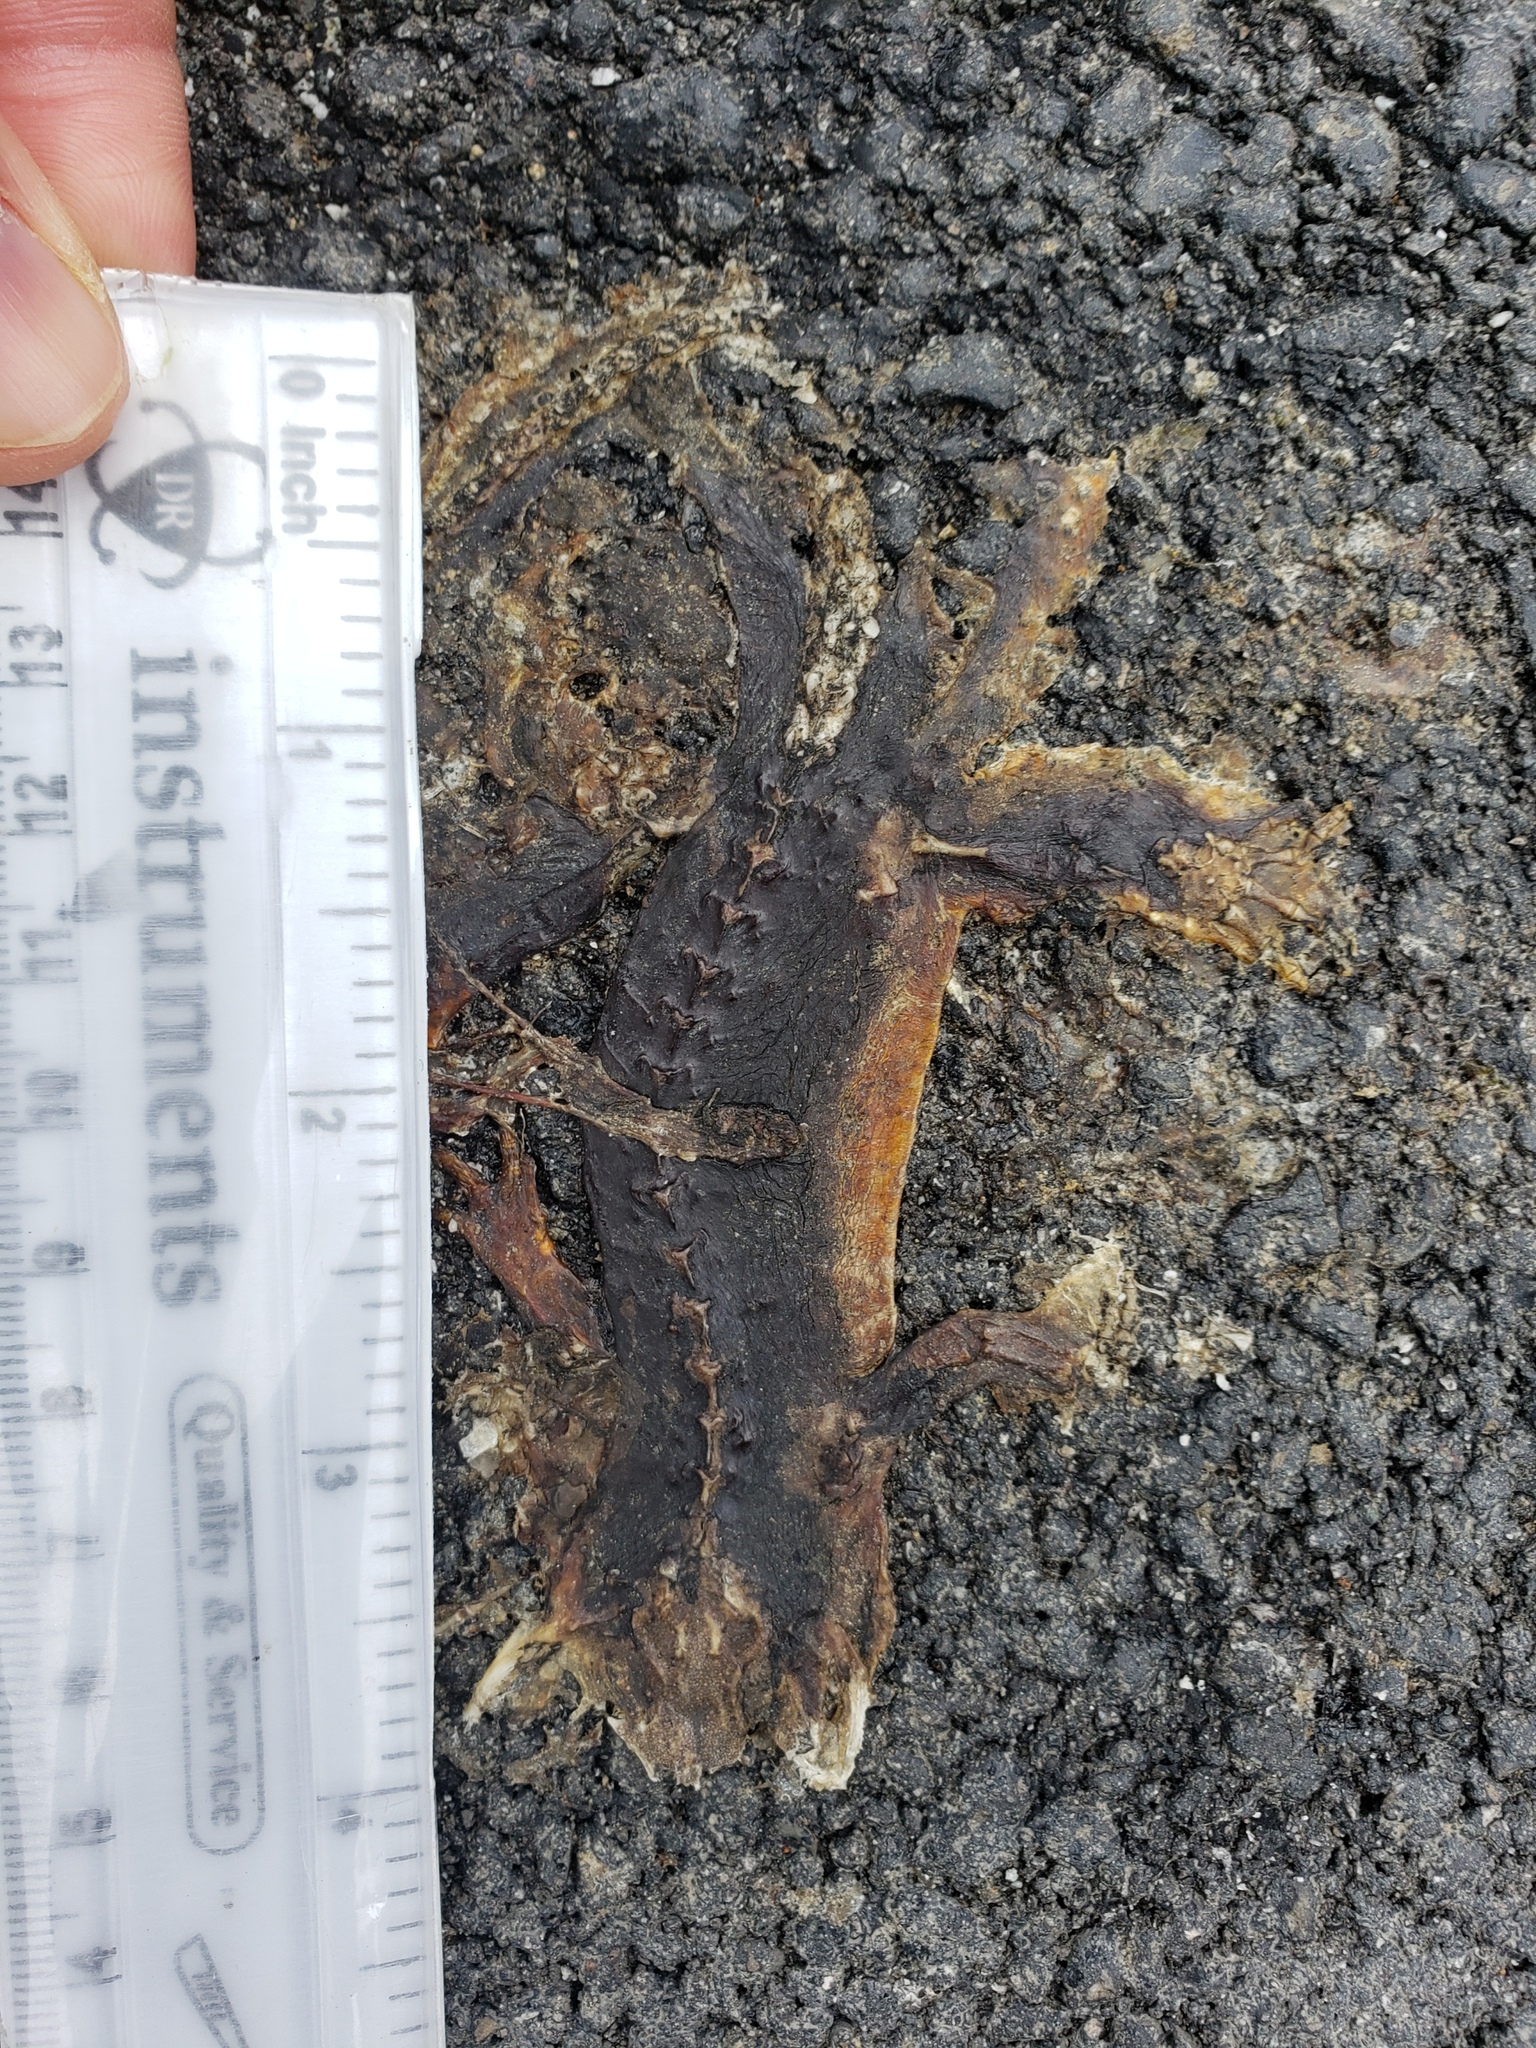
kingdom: Animalia
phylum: Chordata
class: Amphibia
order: Caudata
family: Salamandridae
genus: Taricha
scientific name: Taricha
